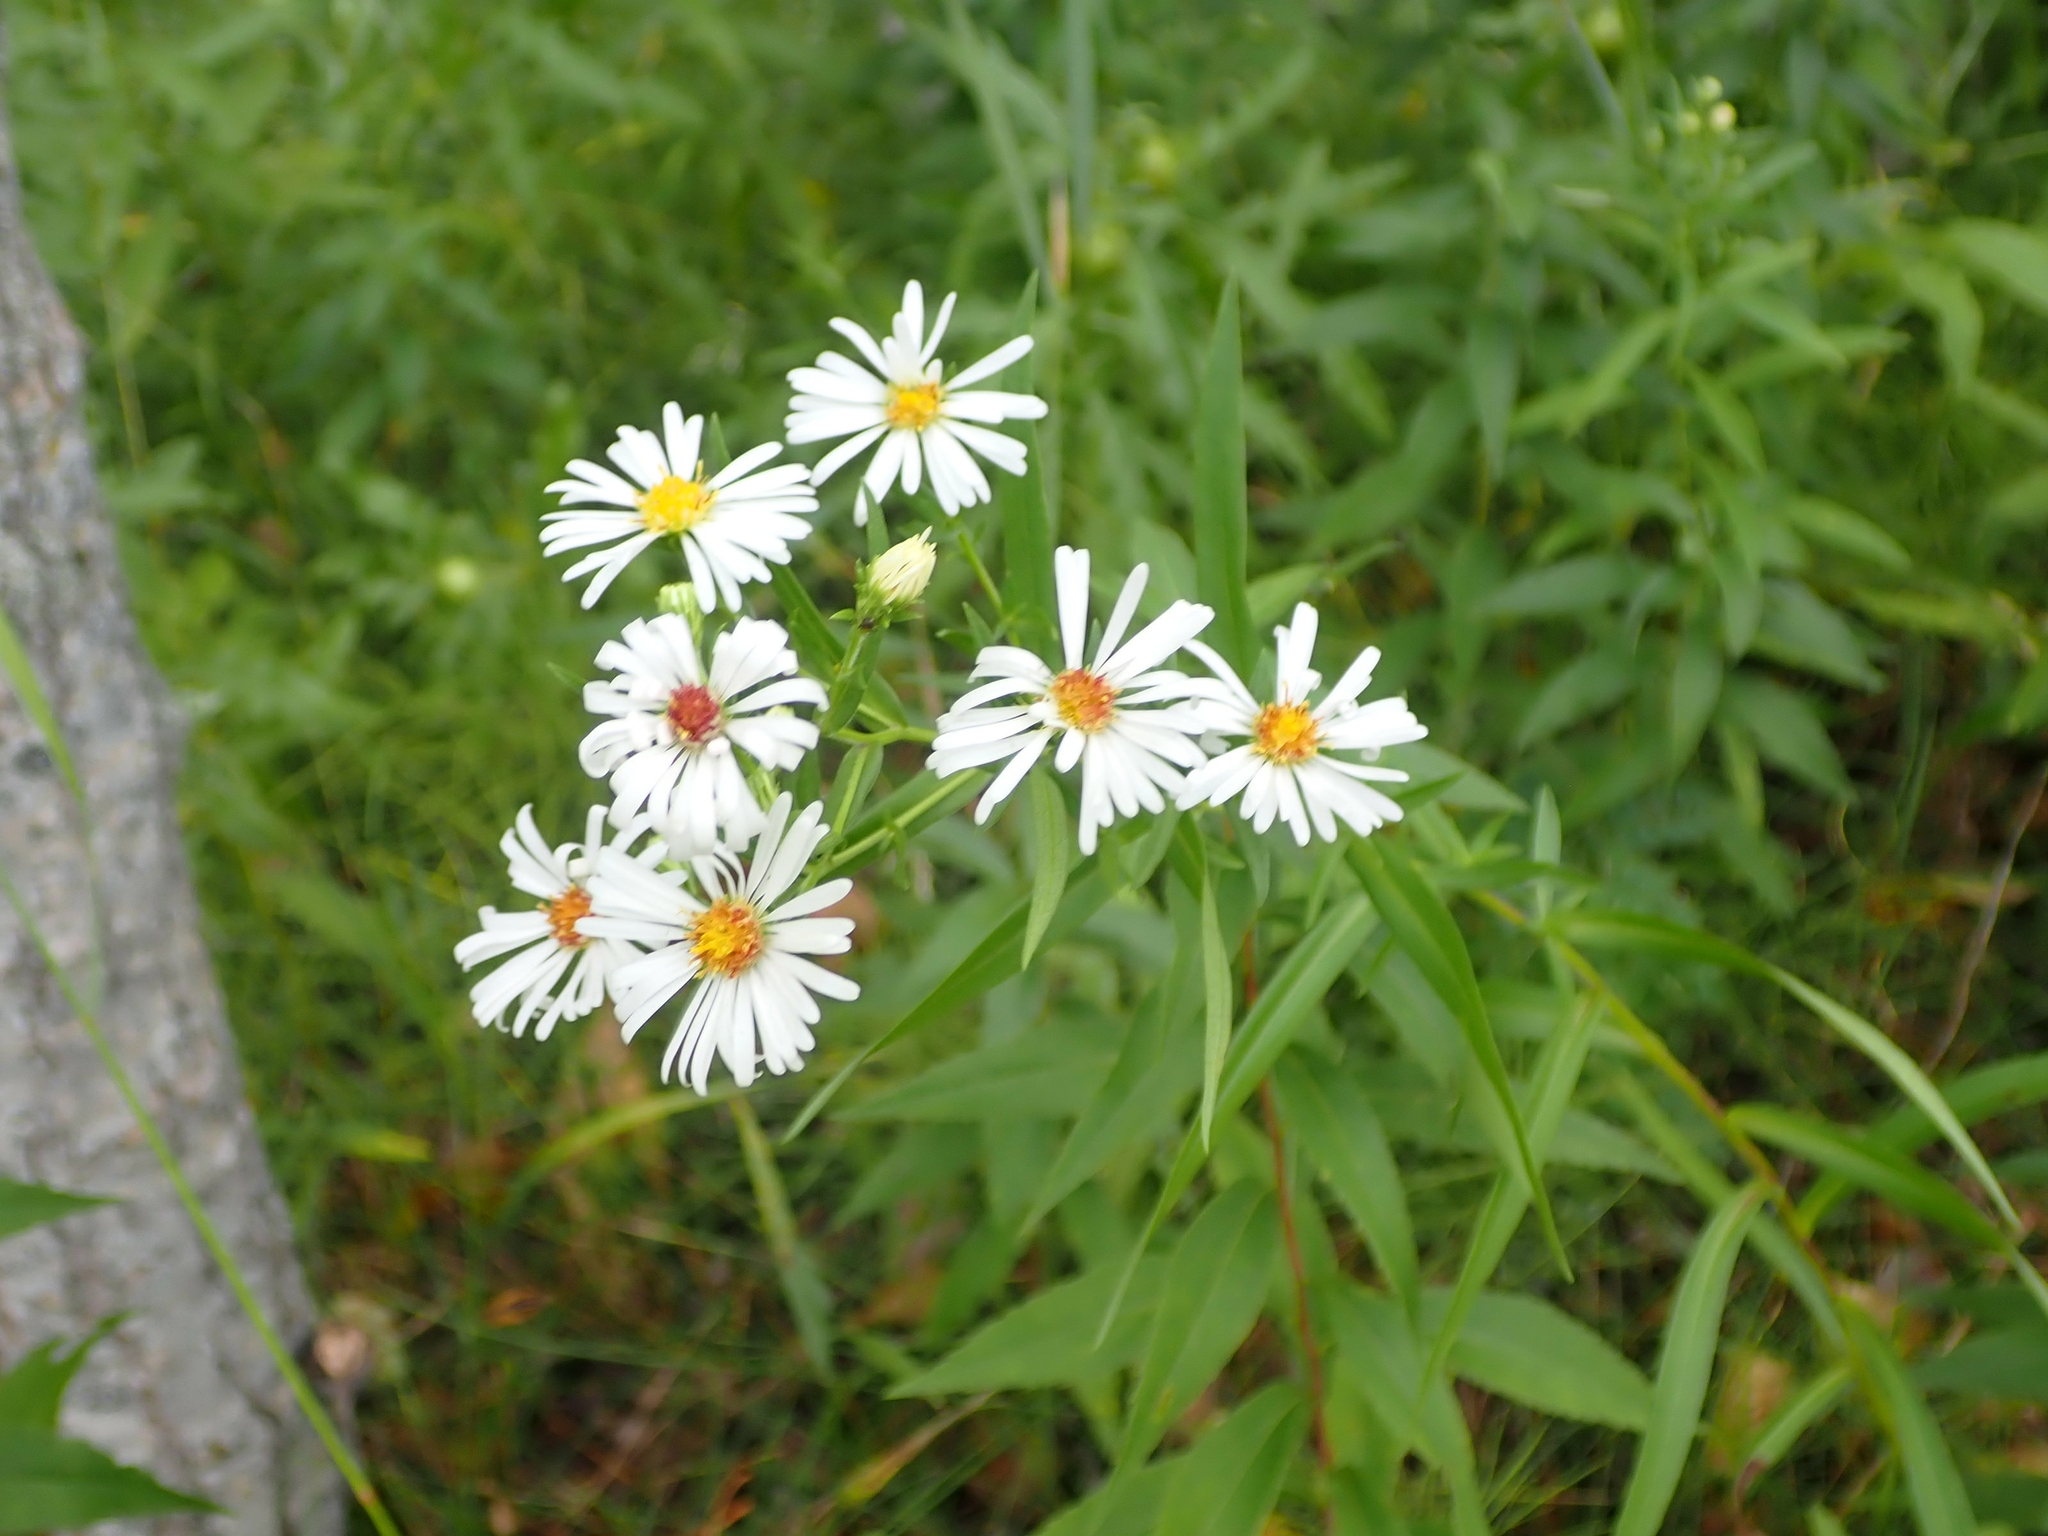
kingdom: Plantae
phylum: Tracheophyta
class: Magnoliopsida
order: Asterales
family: Asteraceae
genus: Symphyotrichum
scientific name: Symphyotrichum lanceolatum
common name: Panicled aster
